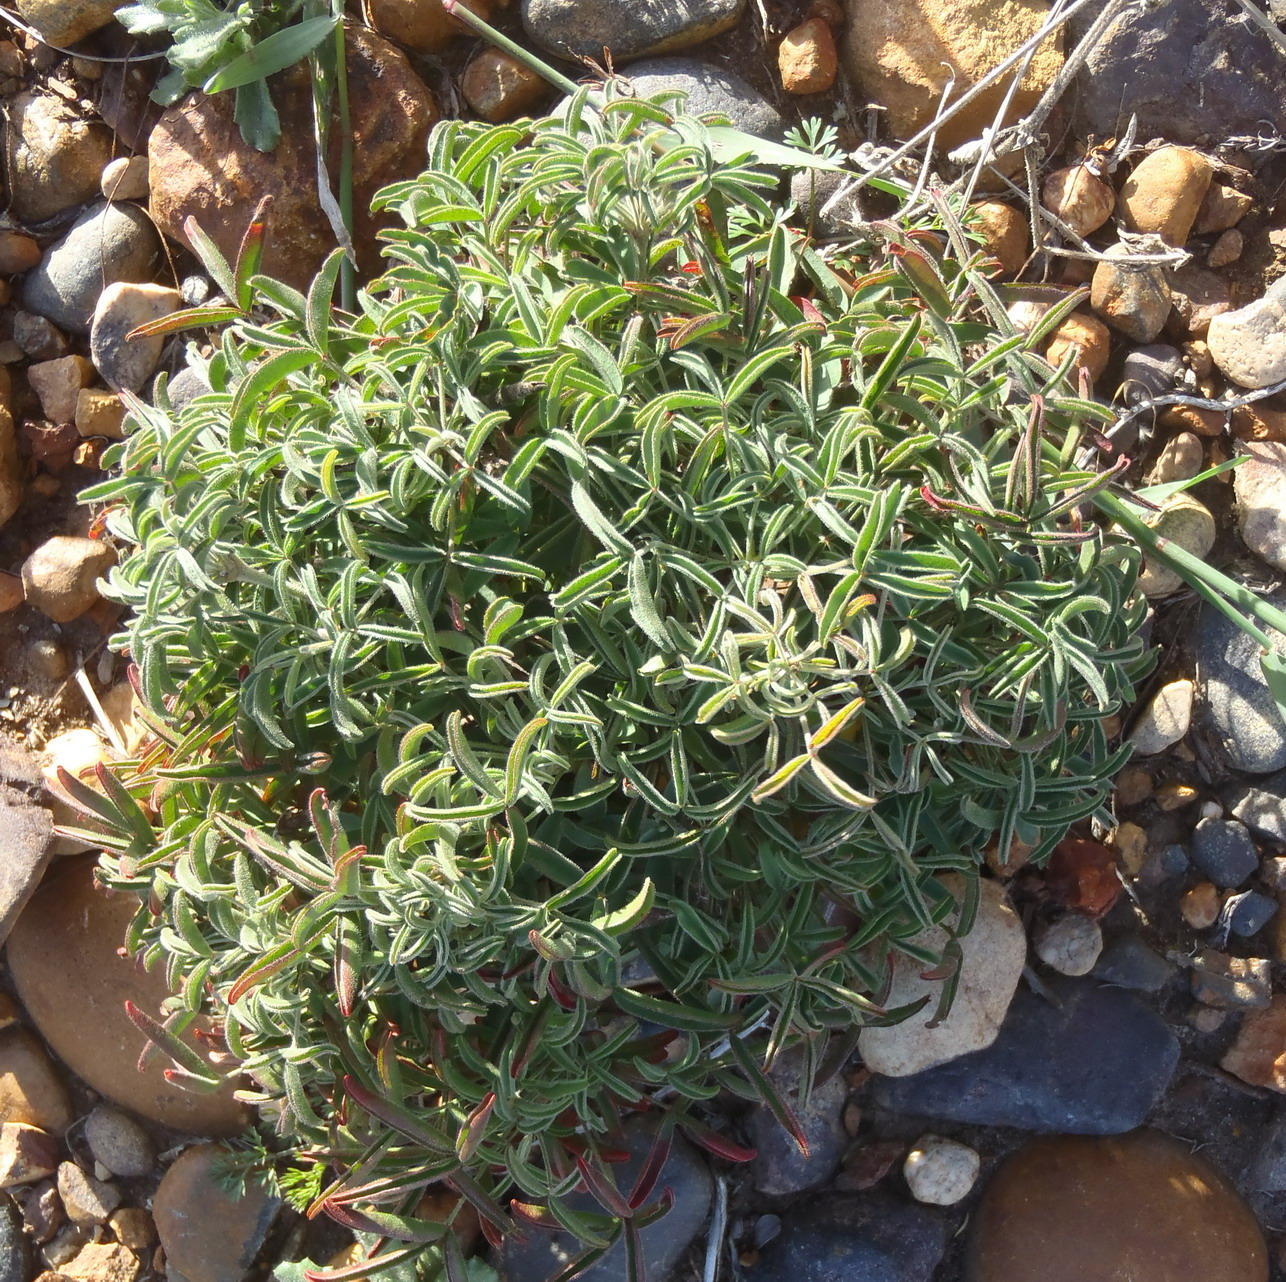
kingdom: Plantae
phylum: Tracheophyta
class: Magnoliopsida
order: Oxalidales
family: Oxalidaceae
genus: Oxalis
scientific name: Oxalis ciliaris
